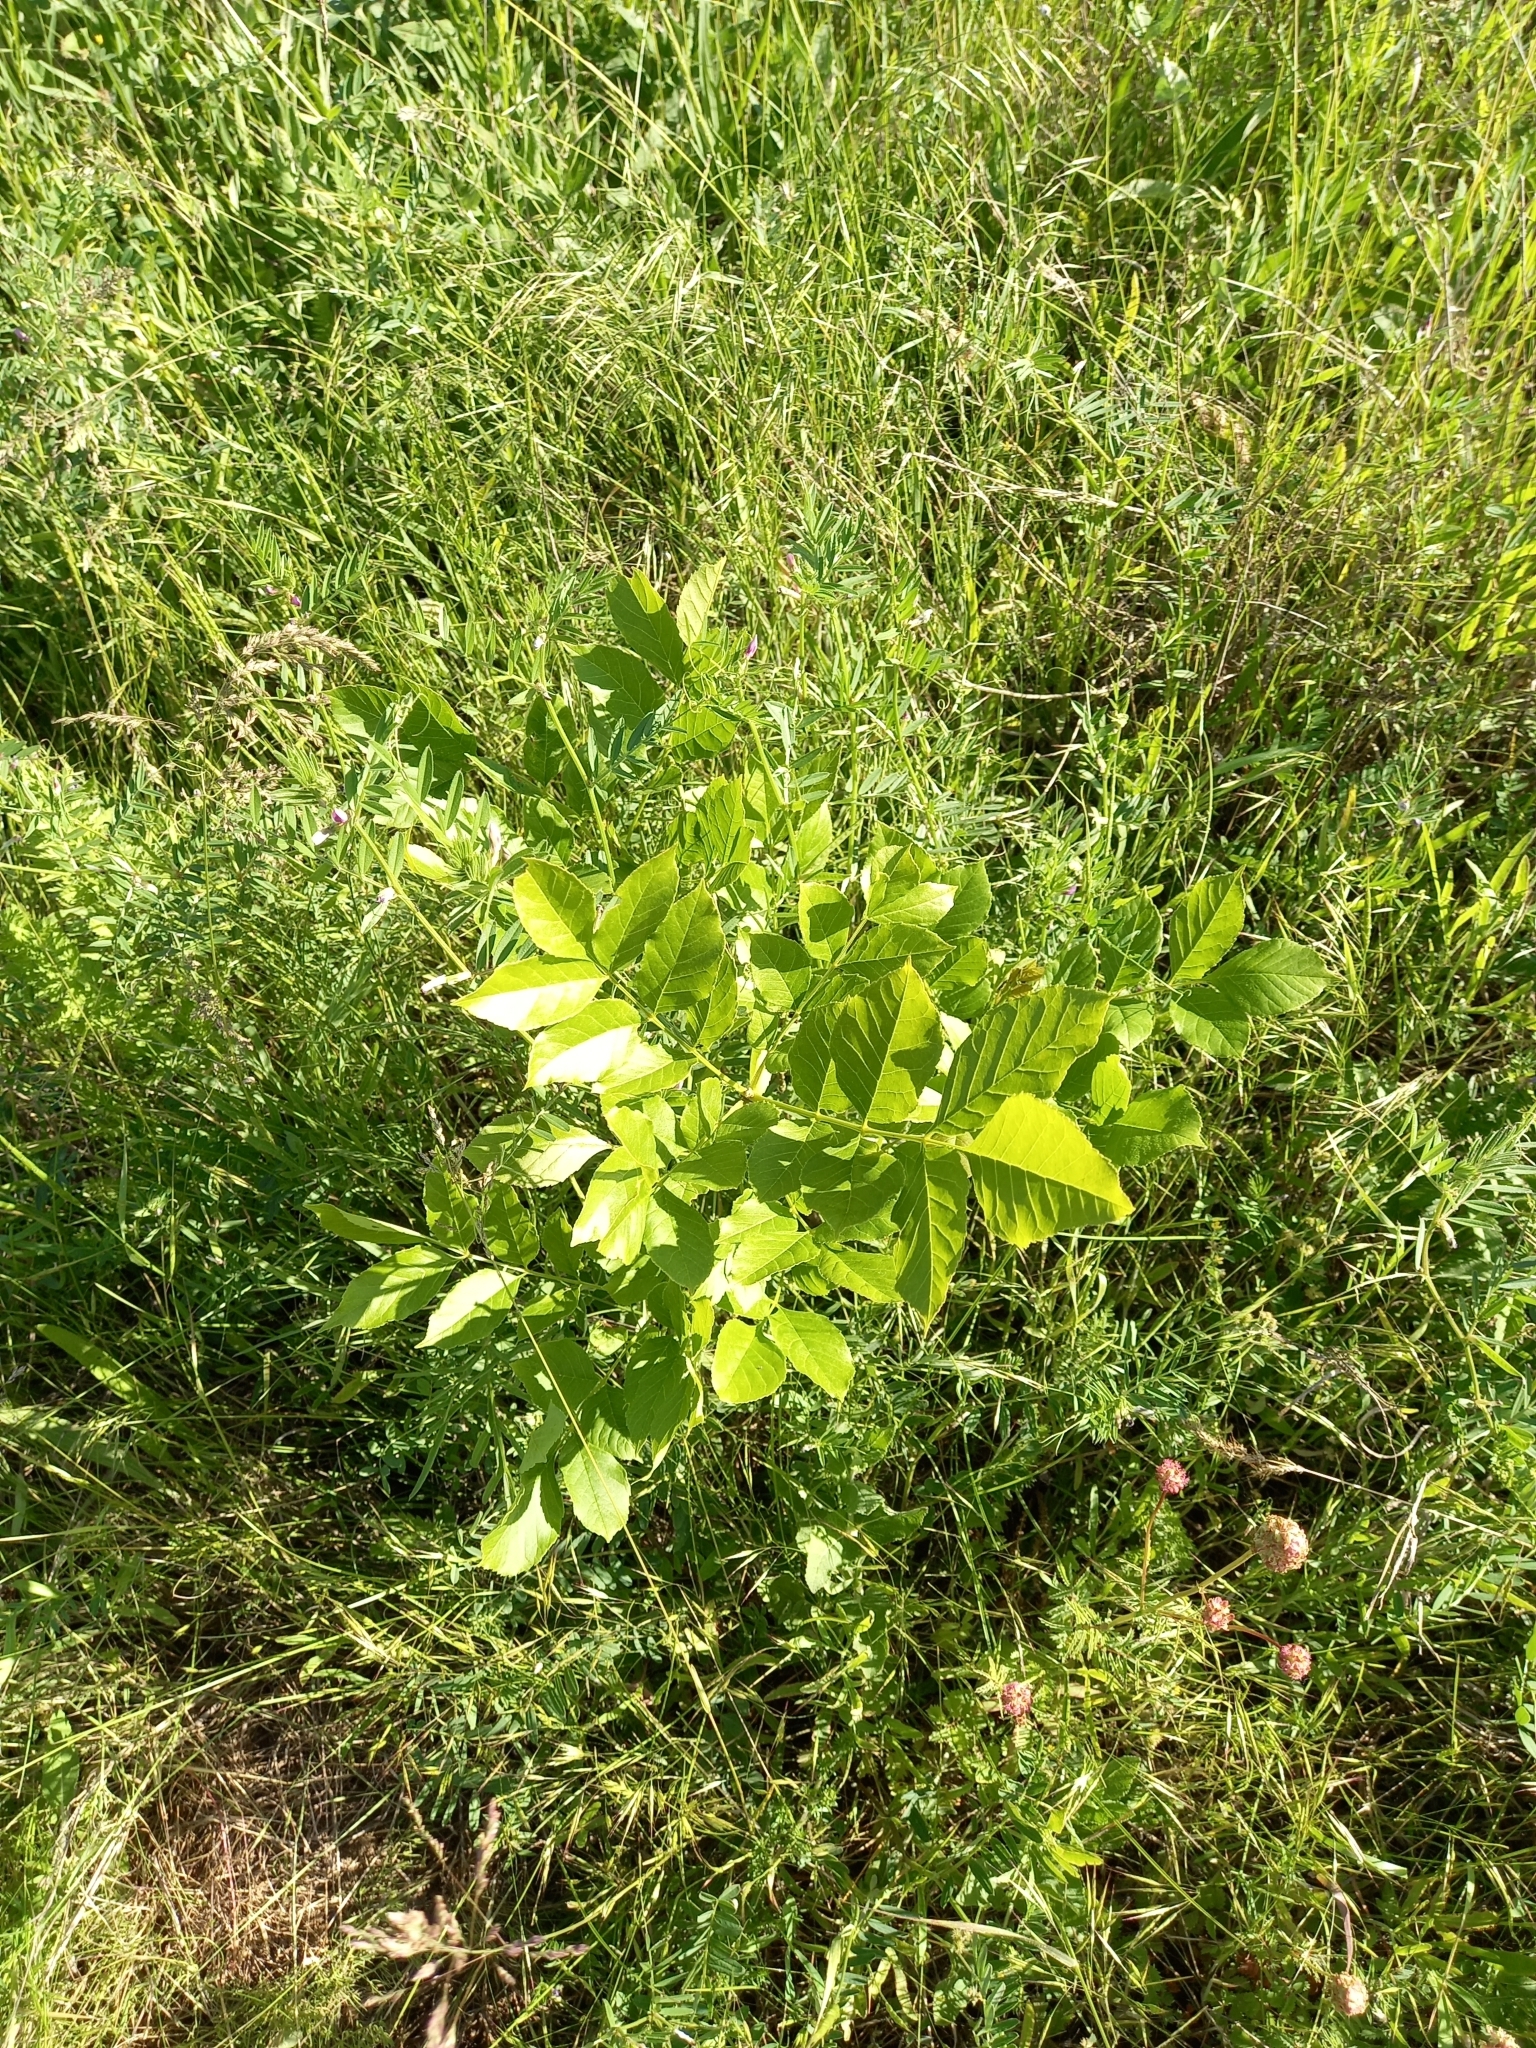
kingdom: Plantae
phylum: Tracheophyta
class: Magnoliopsida
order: Lamiales
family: Oleaceae
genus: Fraxinus
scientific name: Fraxinus pennsylvanica
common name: Green ash
